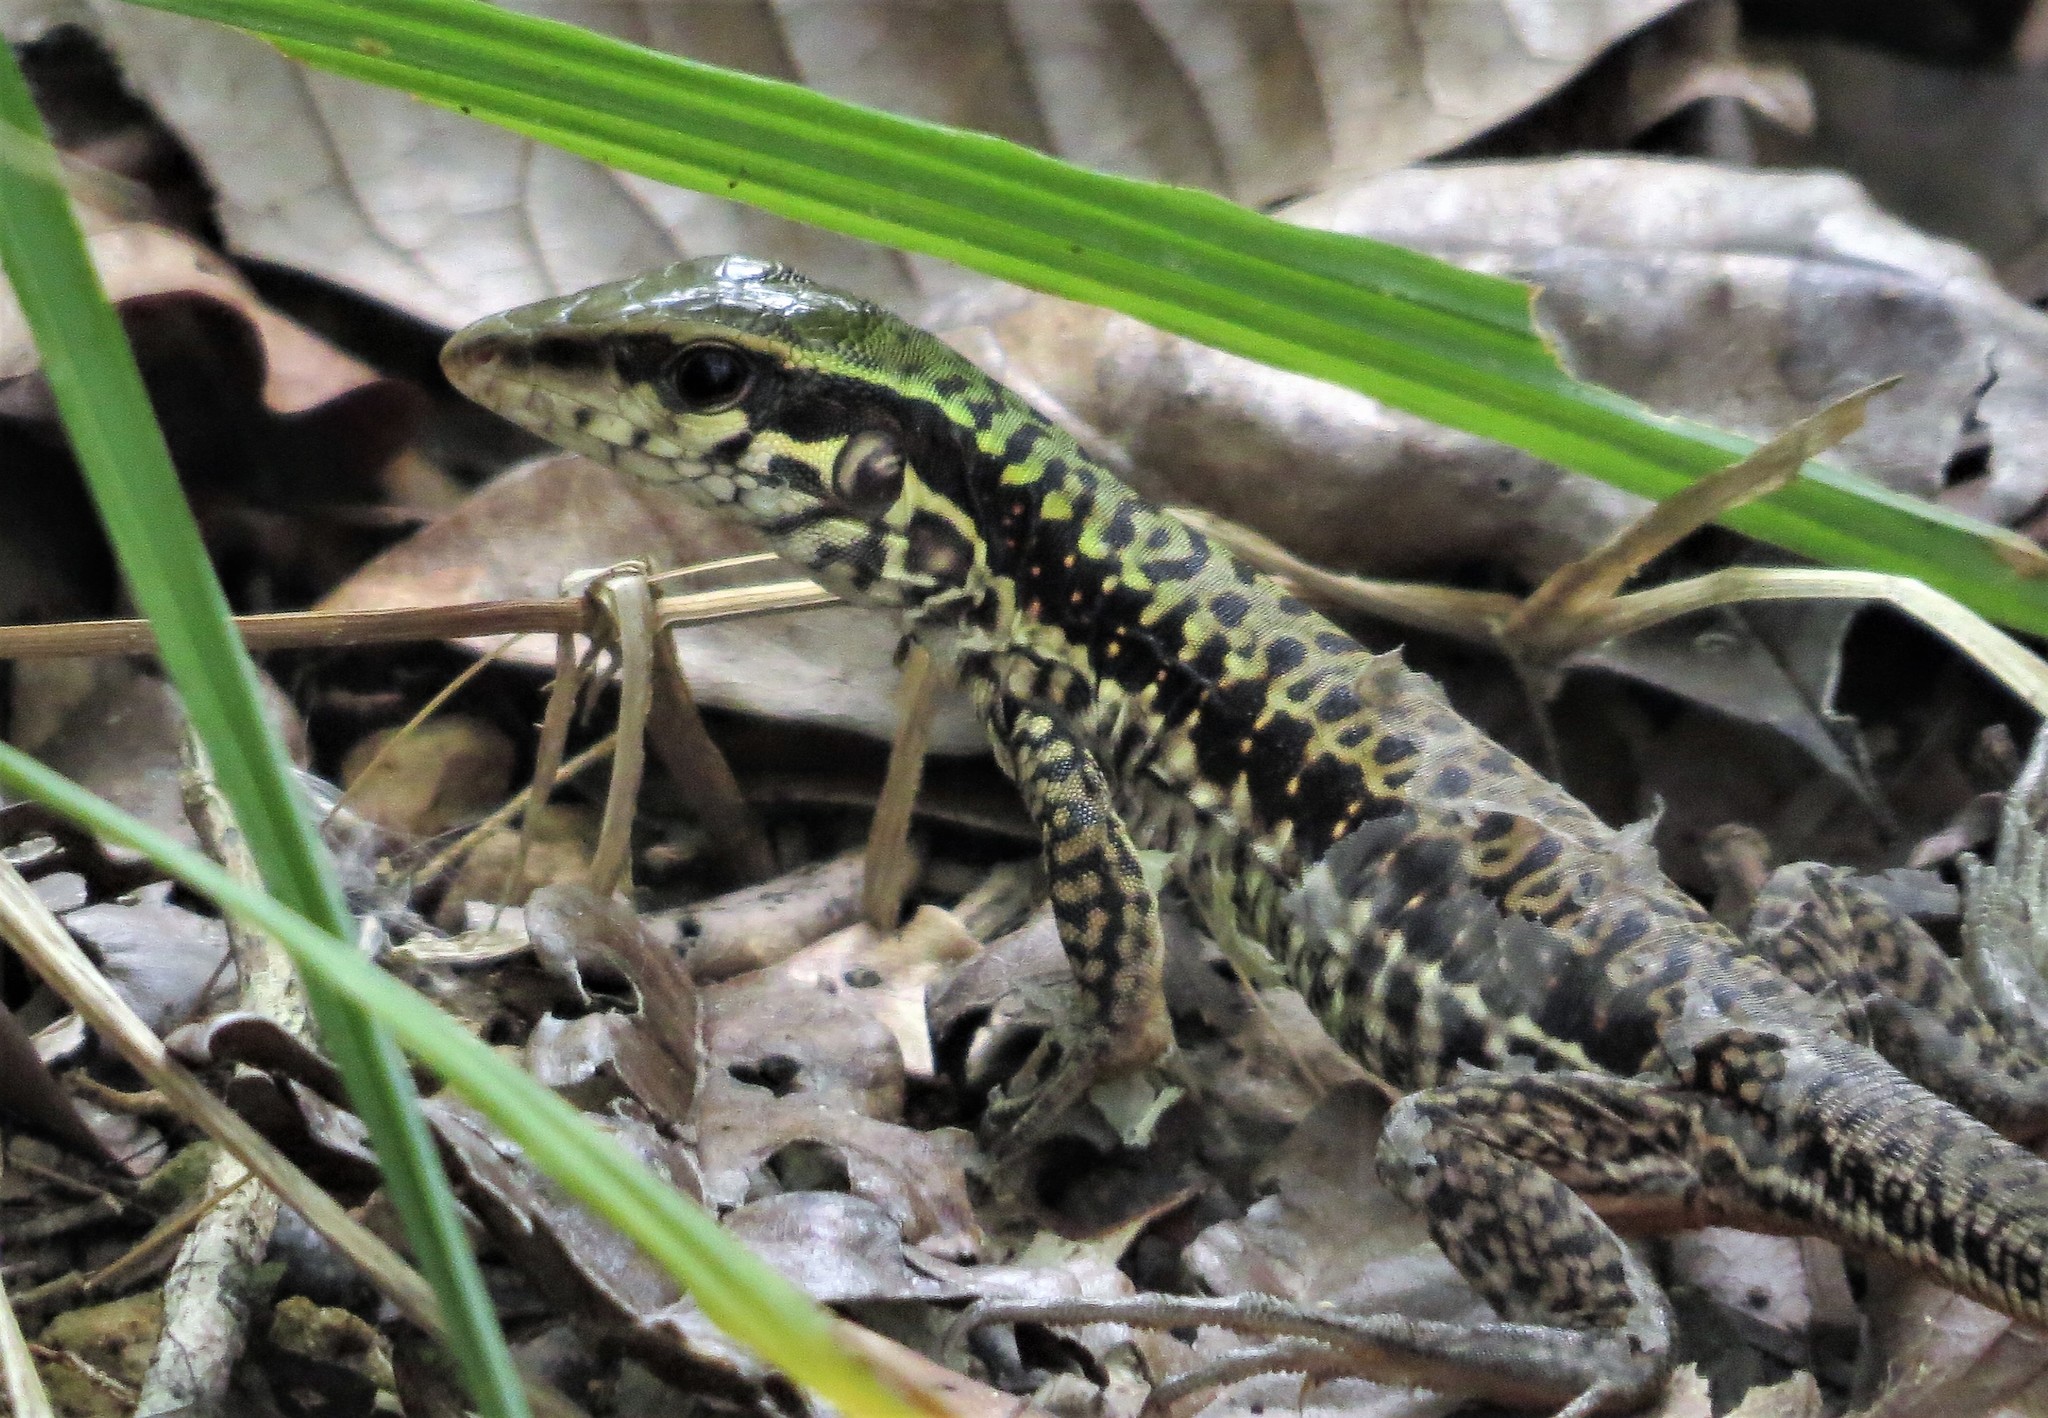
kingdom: Animalia
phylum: Chordata
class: Squamata
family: Teiidae
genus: Ameiva
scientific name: Ameiva ameiva
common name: Giant ameiva
